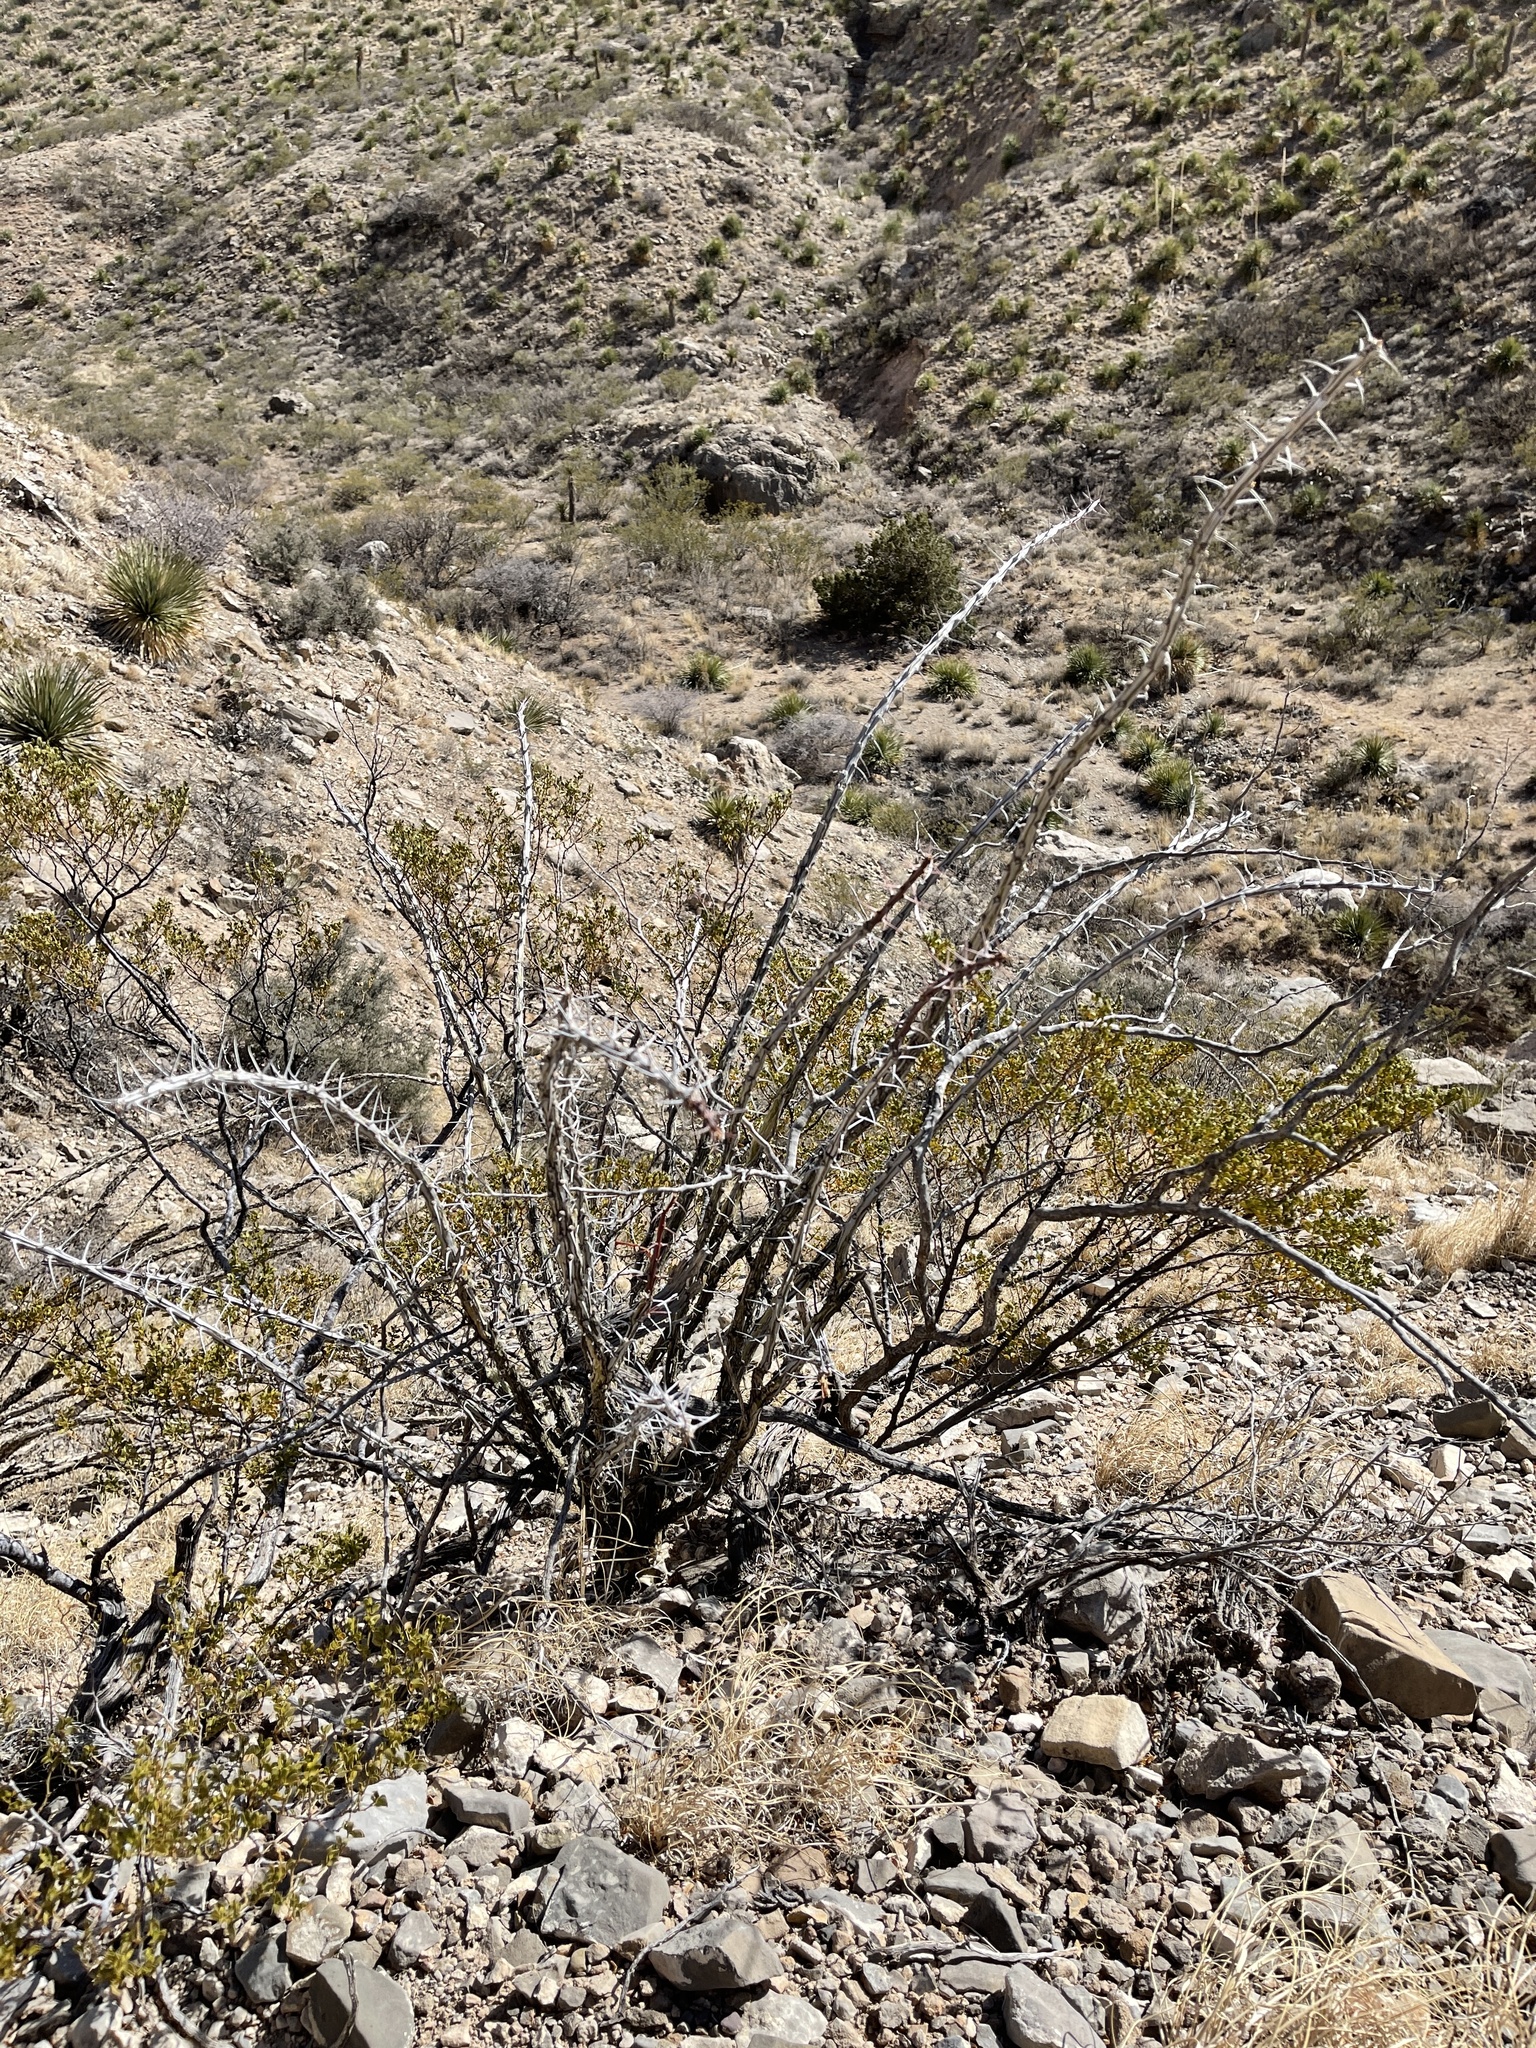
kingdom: Plantae
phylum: Tracheophyta
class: Magnoliopsida
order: Ericales
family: Fouquieriaceae
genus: Fouquieria
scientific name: Fouquieria splendens
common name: Vine-cactus
